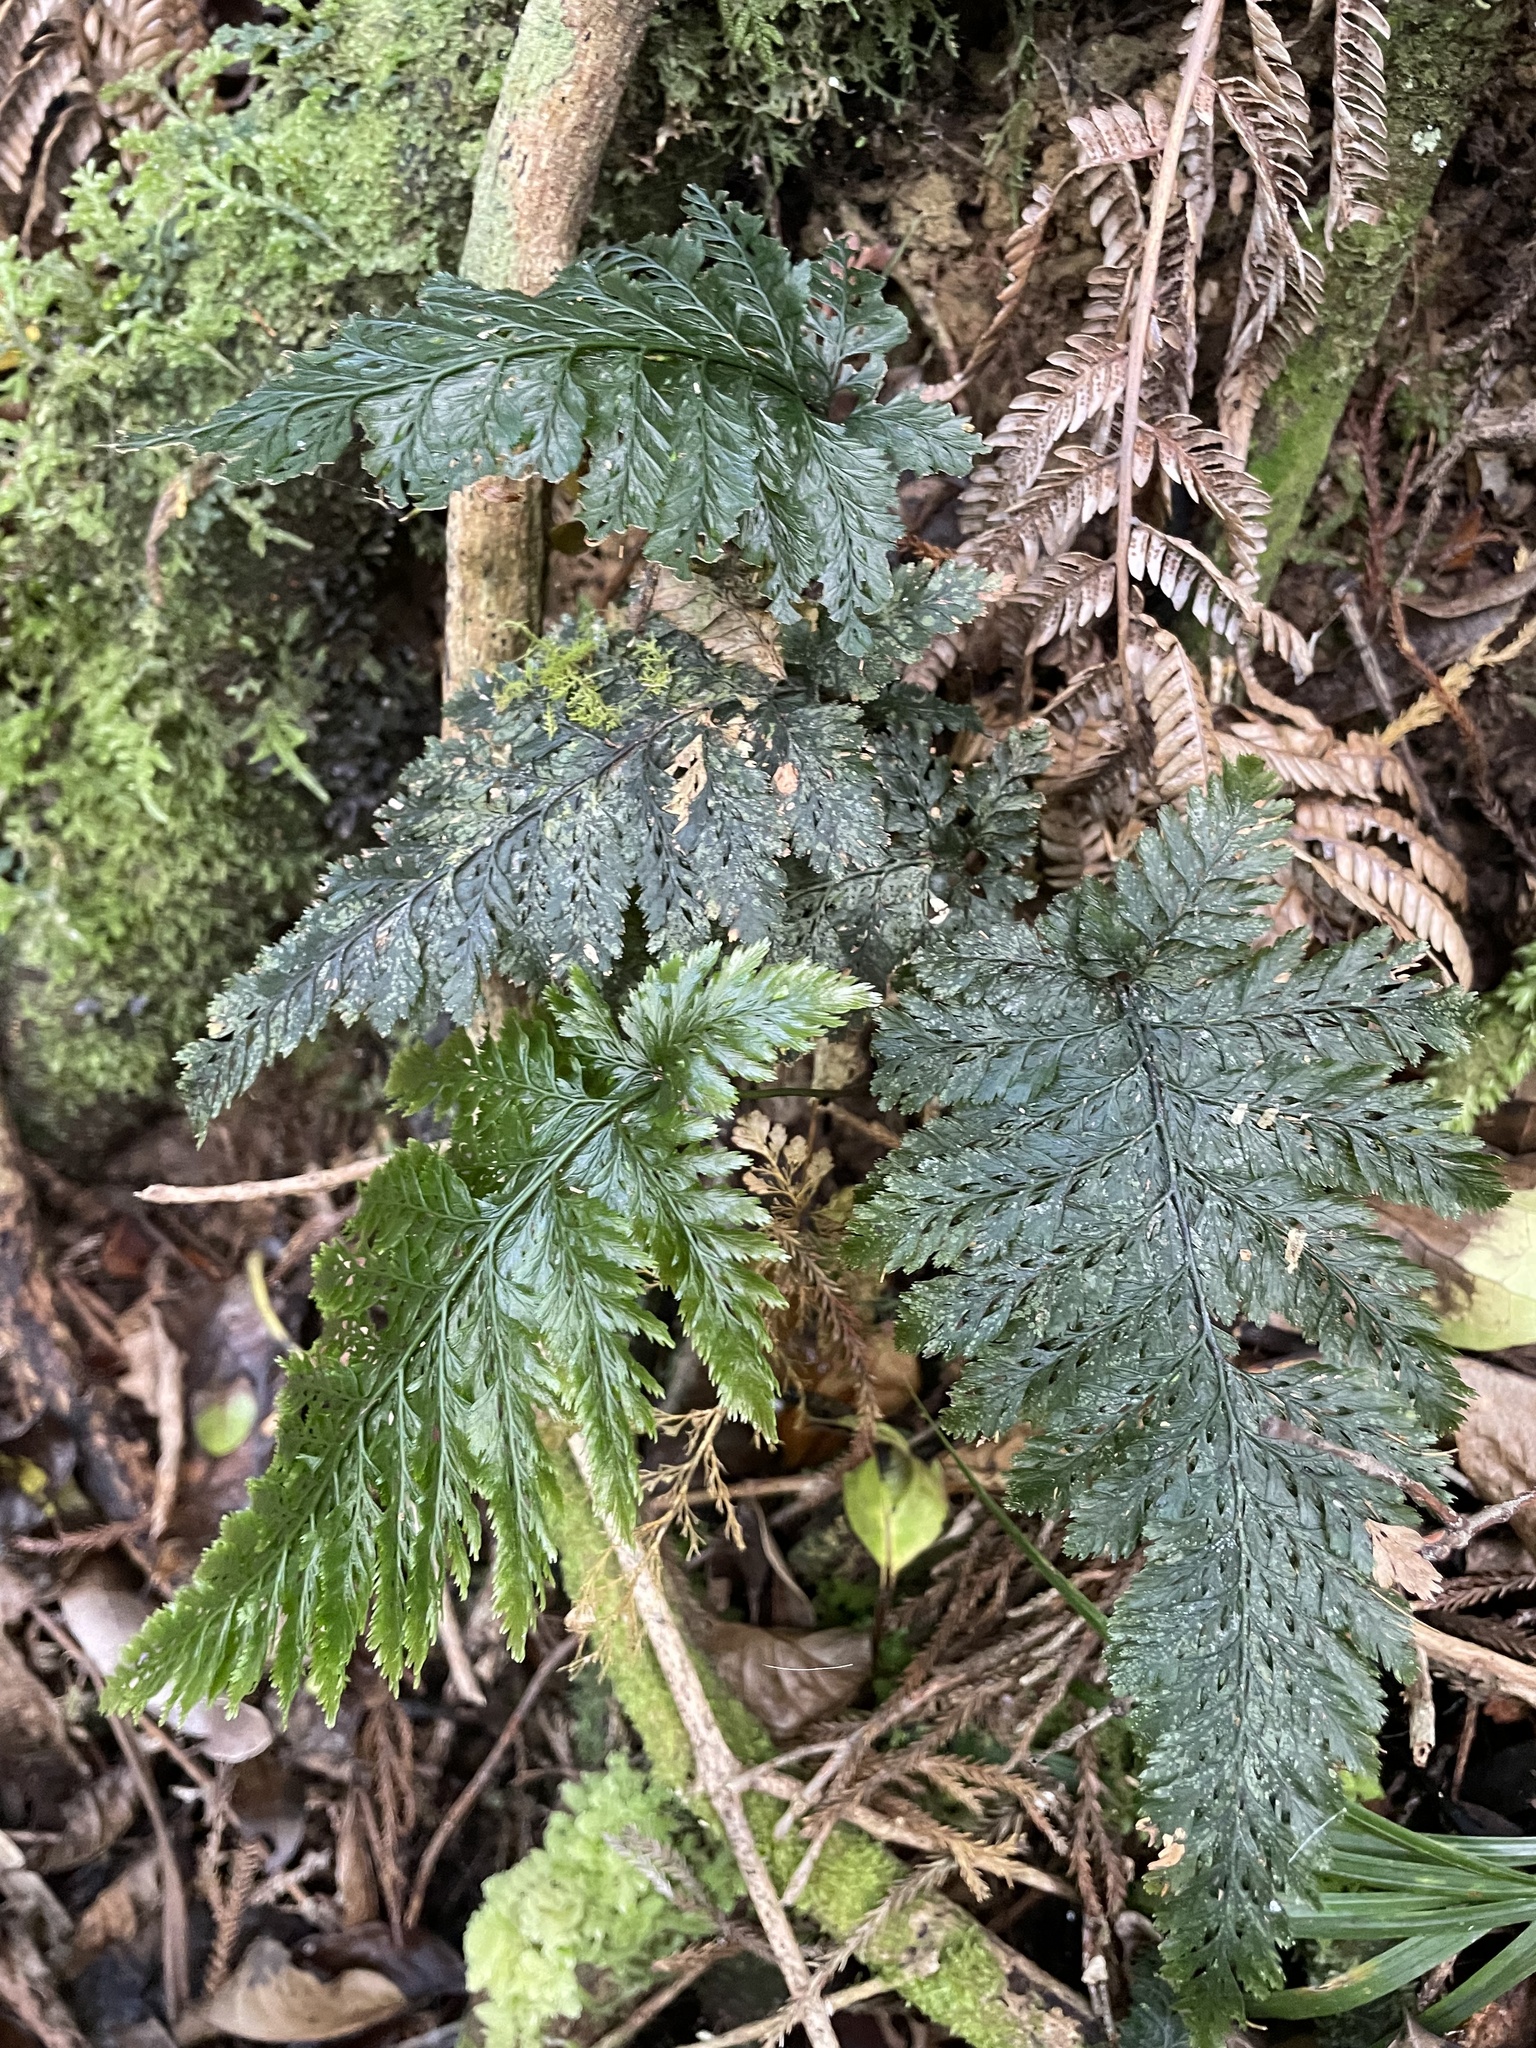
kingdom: Plantae
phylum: Tracheophyta
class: Polypodiopsida
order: Hymenophyllales
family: Hymenophyllaceae
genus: Abrodictyum
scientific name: Abrodictyum elongatum
